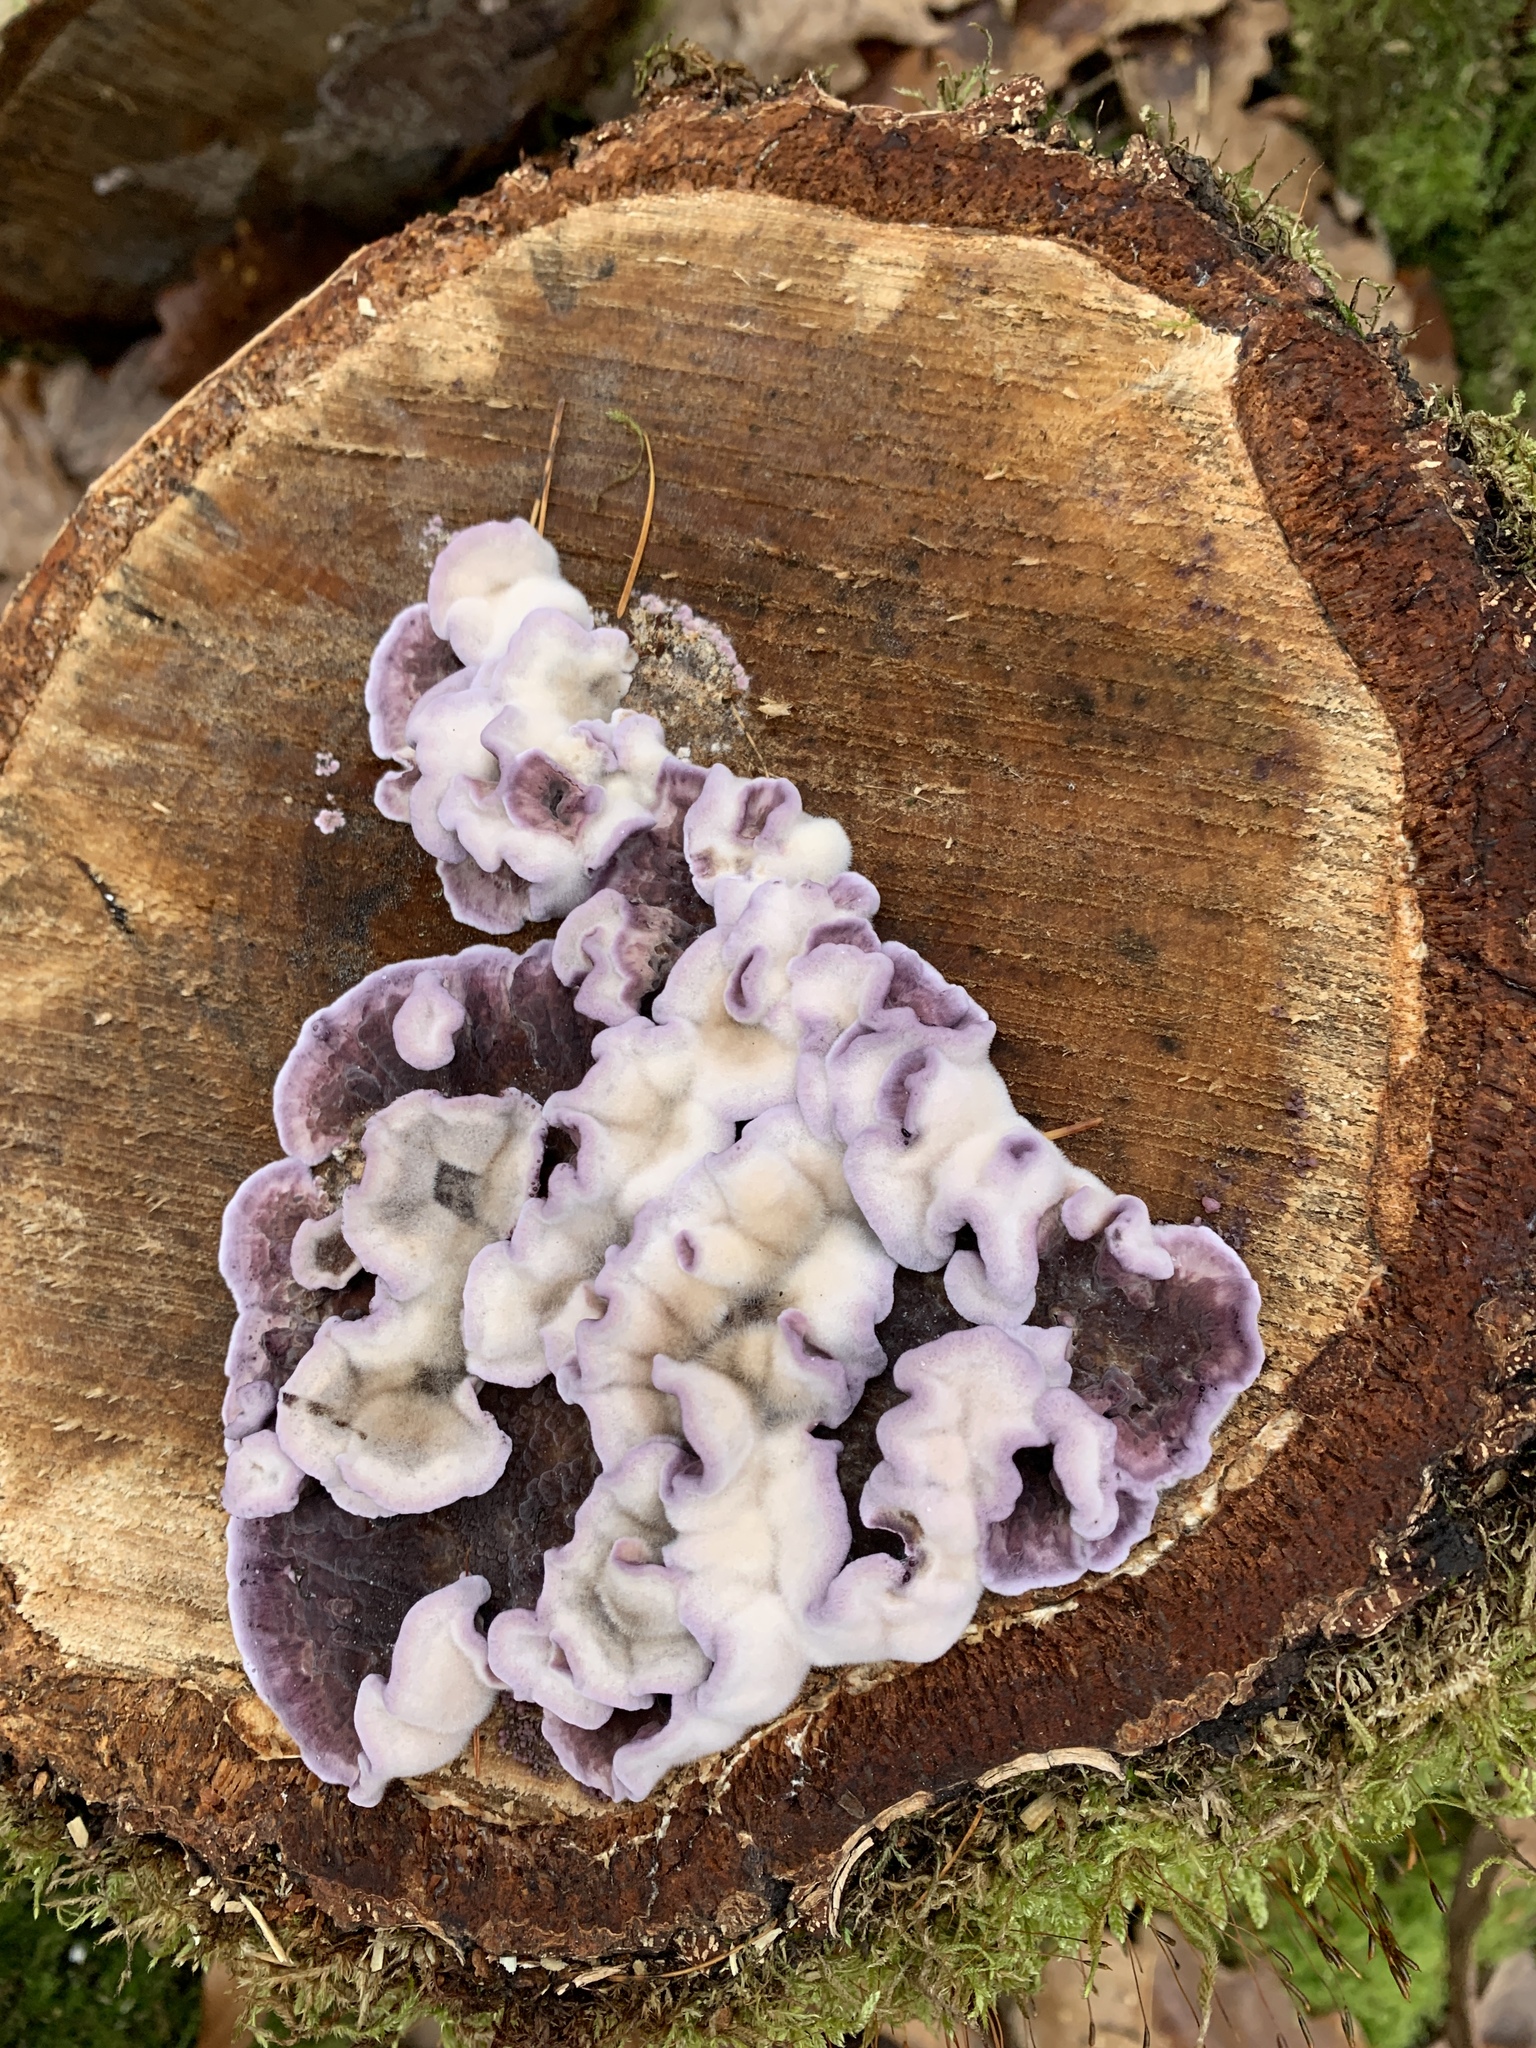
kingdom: Fungi
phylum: Basidiomycota
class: Agaricomycetes
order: Agaricales
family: Cyphellaceae
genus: Chondrostereum
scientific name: Chondrostereum purpureum
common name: Silver leaf disease
